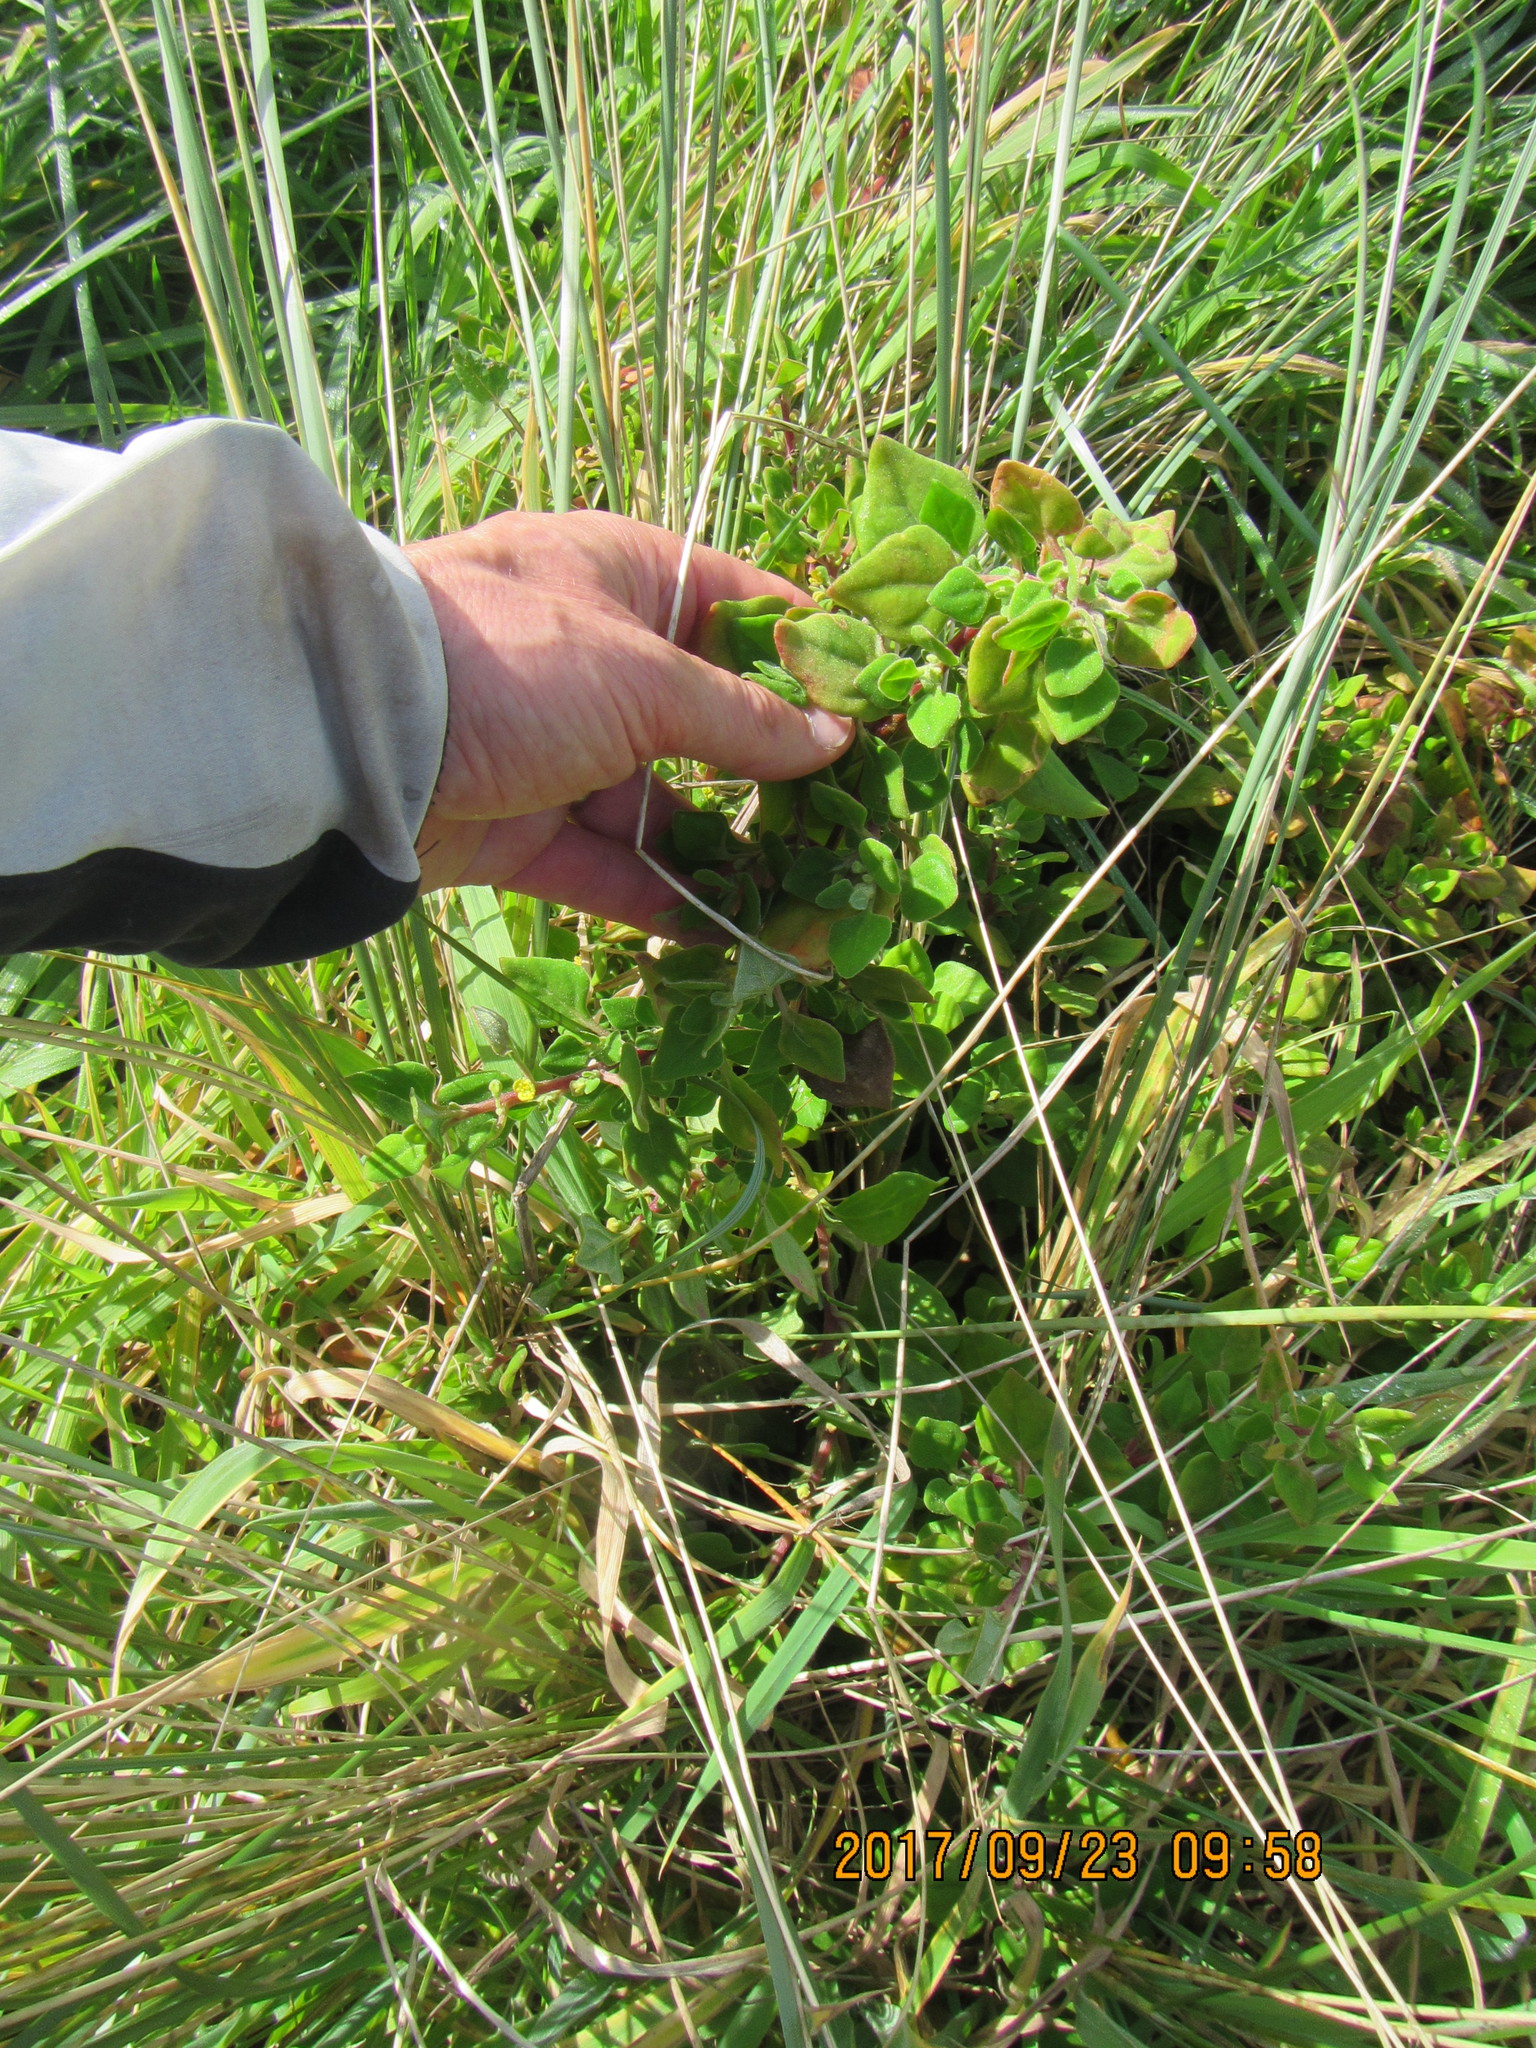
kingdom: Plantae
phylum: Tracheophyta
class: Magnoliopsida
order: Caryophyllales
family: Aizoaceae
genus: Tetragonia
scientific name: Tetragonia implexicoma
